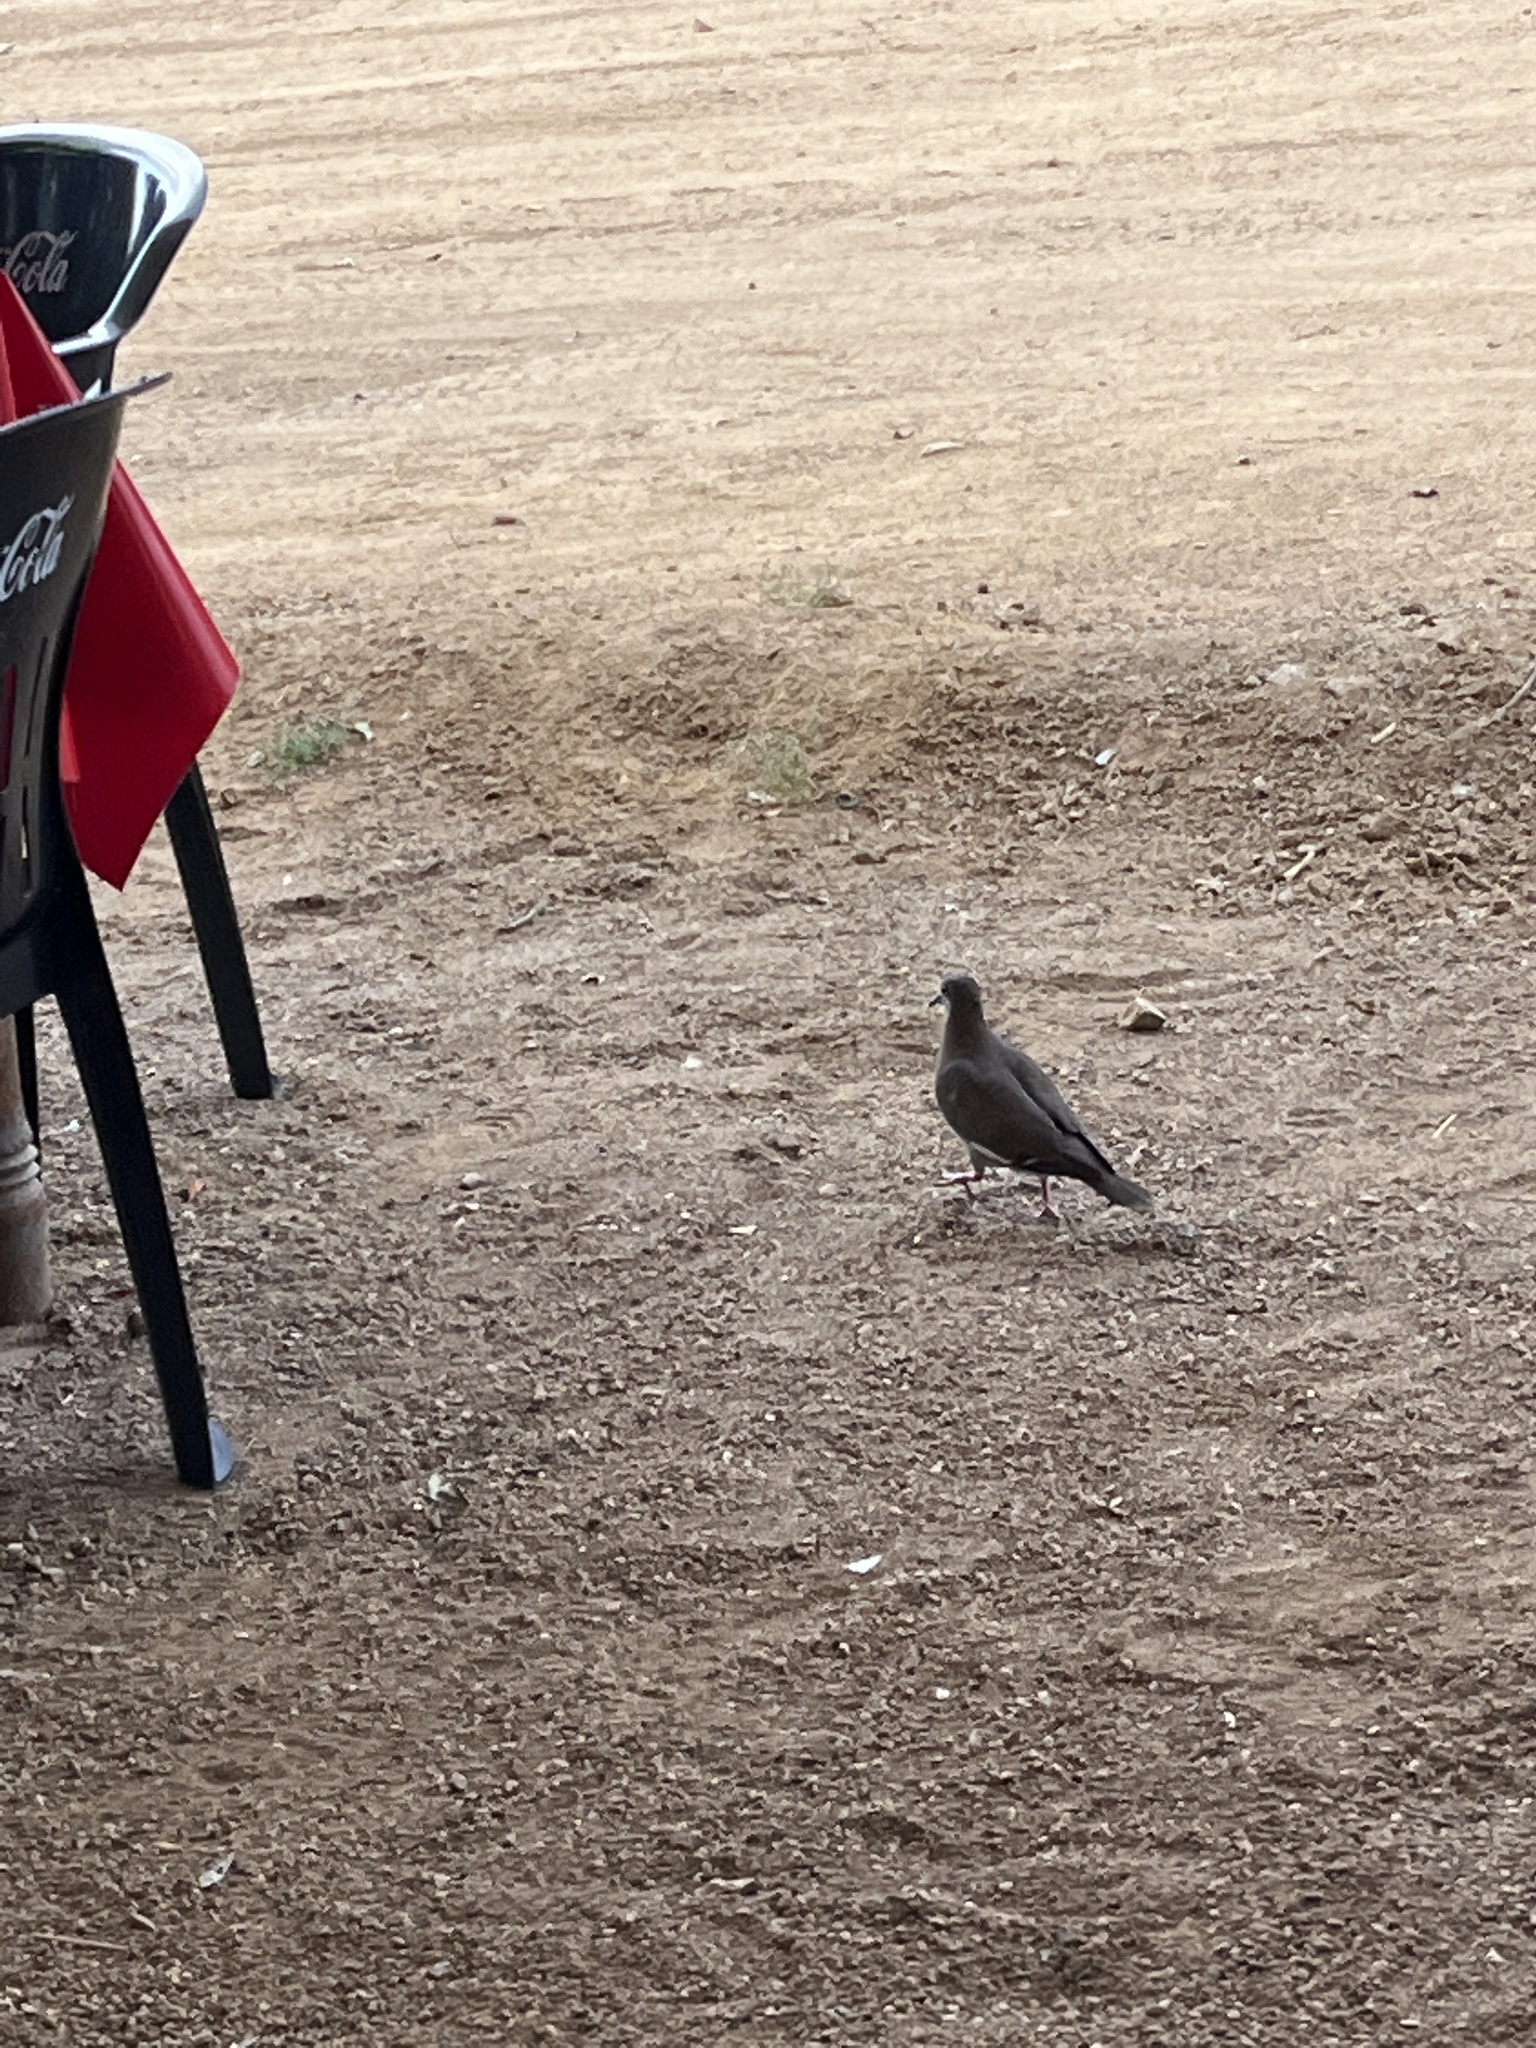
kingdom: Animalia
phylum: Chordata
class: Aves
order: Columbiformes
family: Columbidae
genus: Zenaida
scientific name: Zenaida asiatica
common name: White-winged dove
